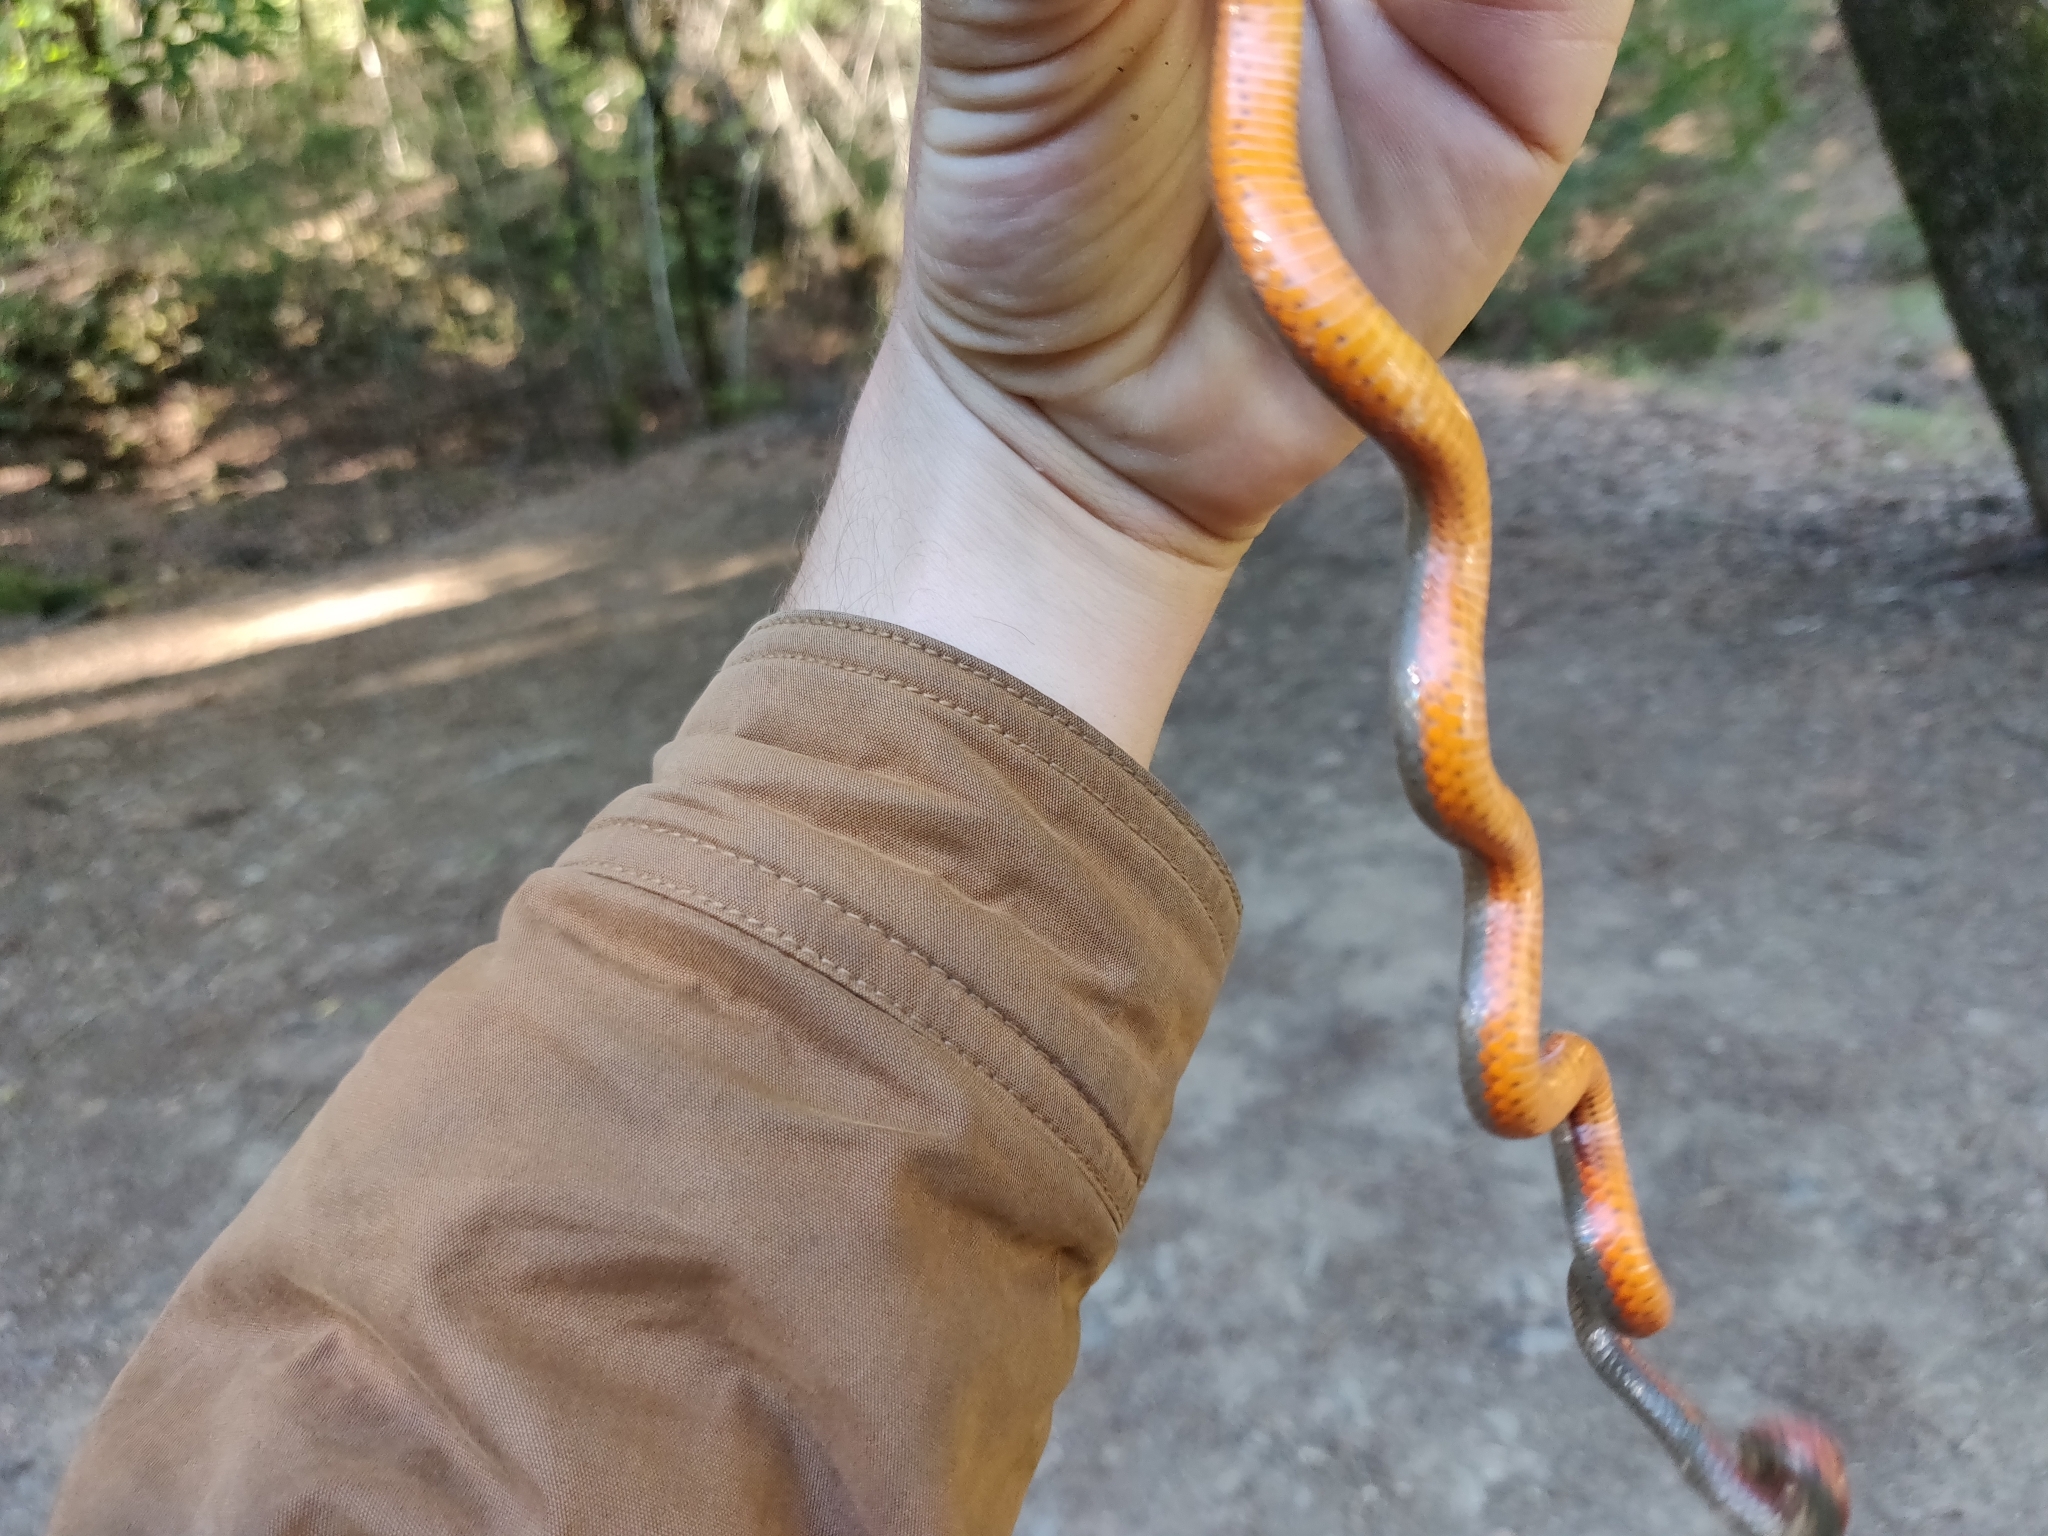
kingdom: Animalia
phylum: Chordata
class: Squamata
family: Colubridae
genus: Diadophis
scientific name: Diadophis punctatus
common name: Ringneck snake
